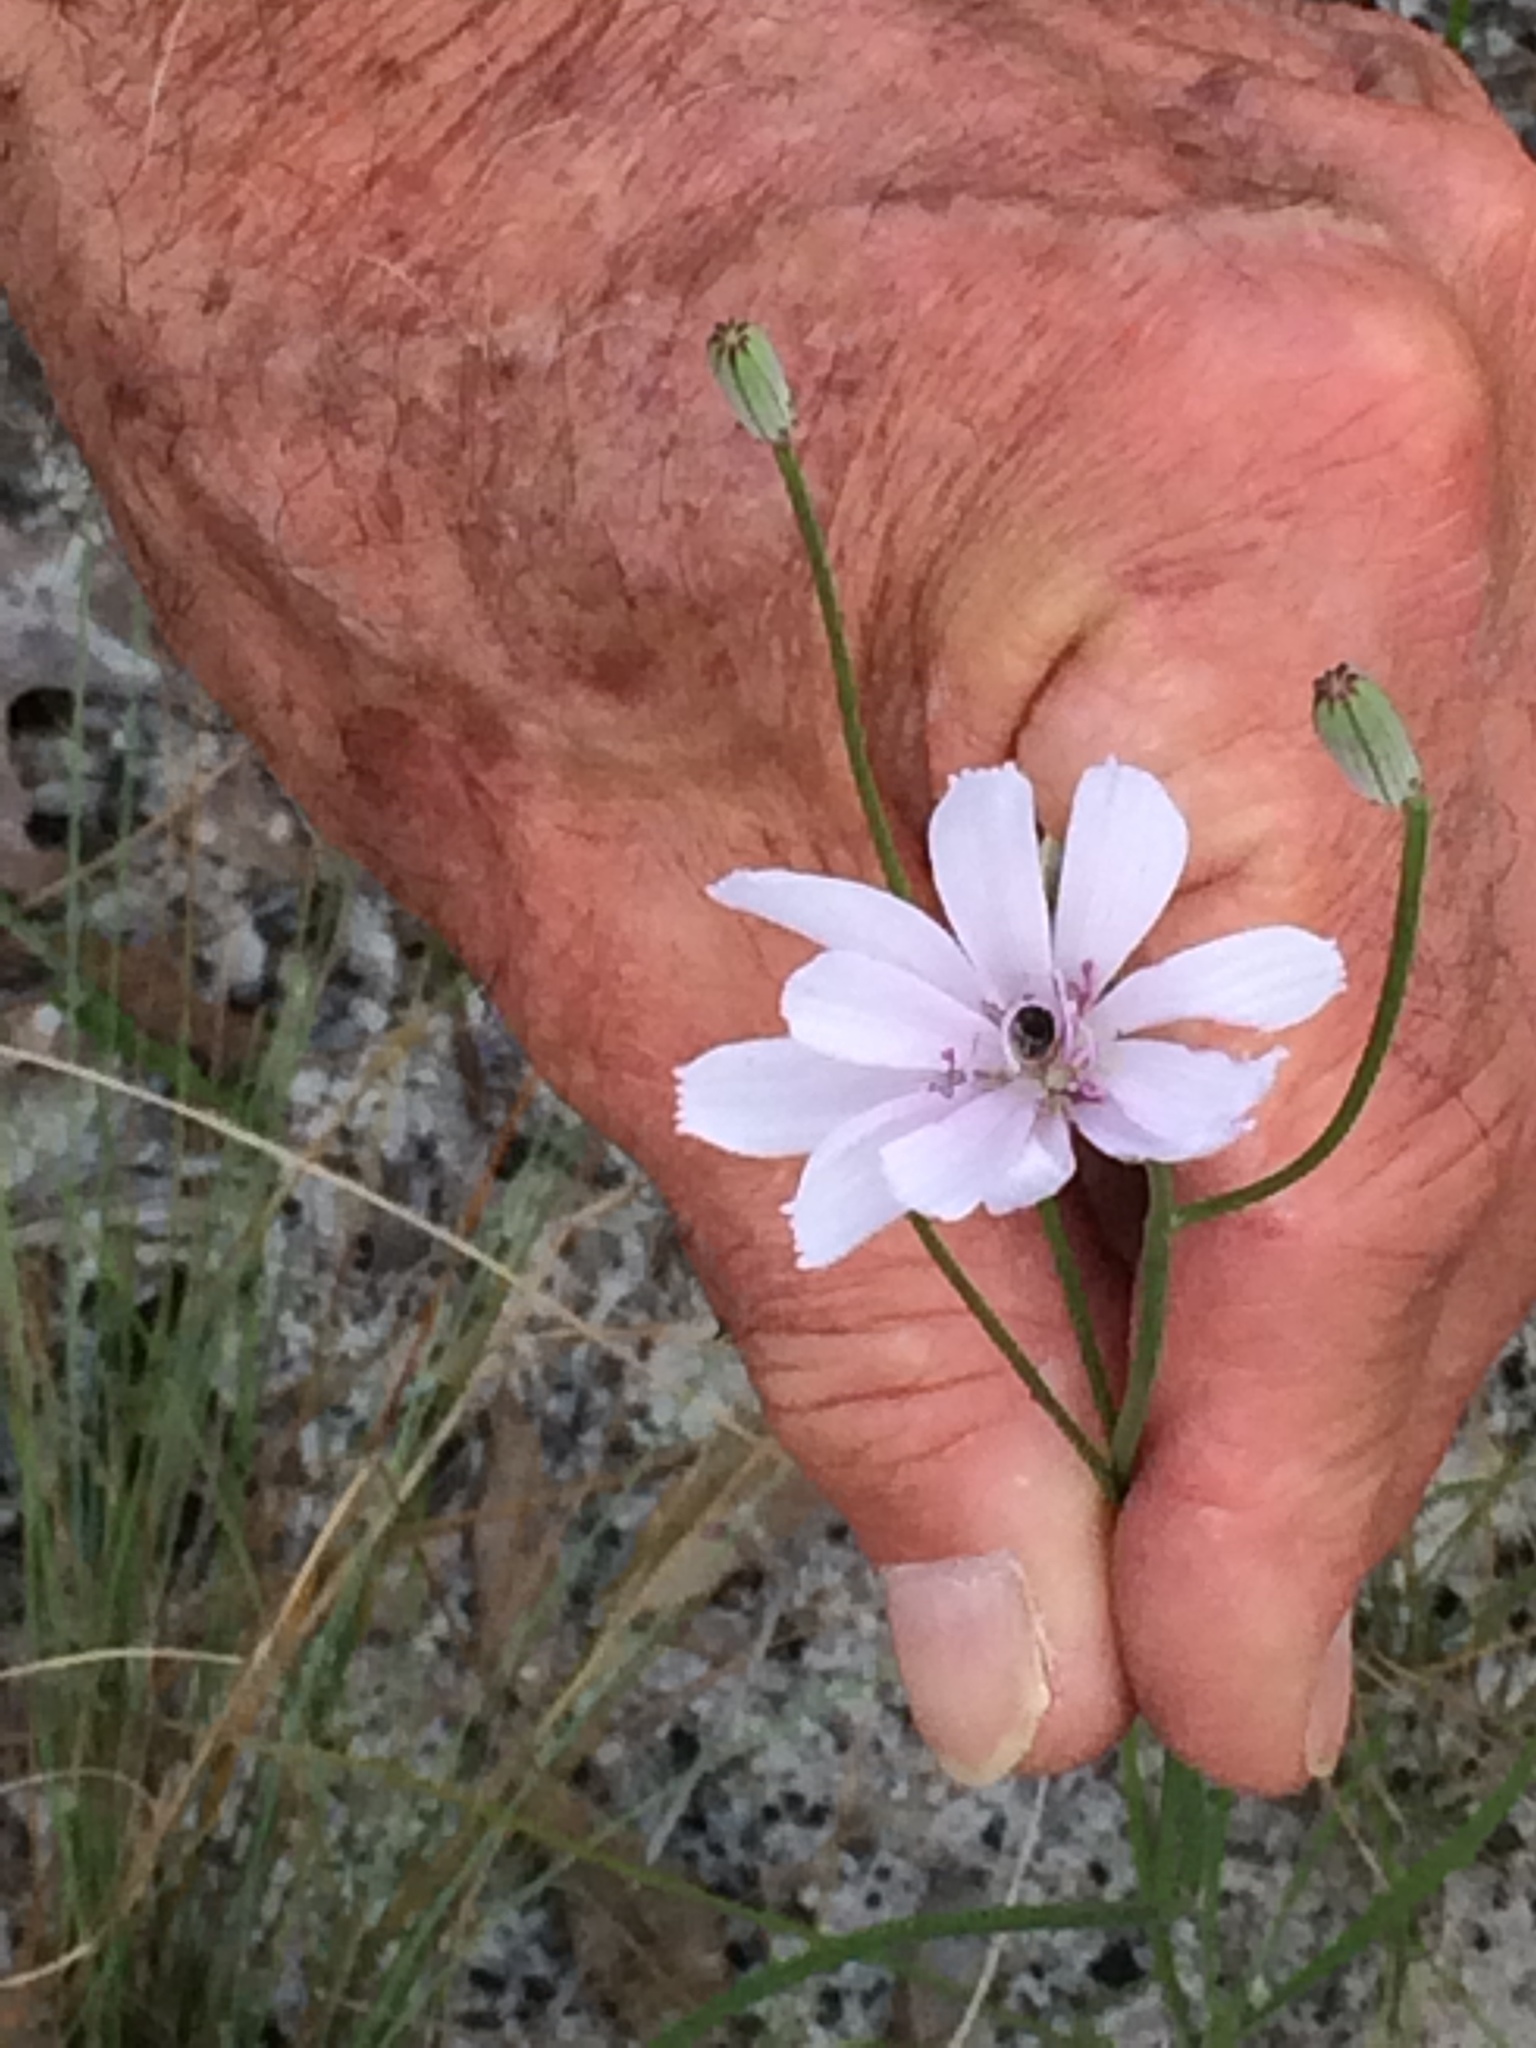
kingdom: Plantae
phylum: Tracheophyta
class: Magnoliopsida
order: Asterales
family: Asteraceae
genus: Lygodesmia
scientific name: Lygodesmia aphylla
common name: Rose-rush
